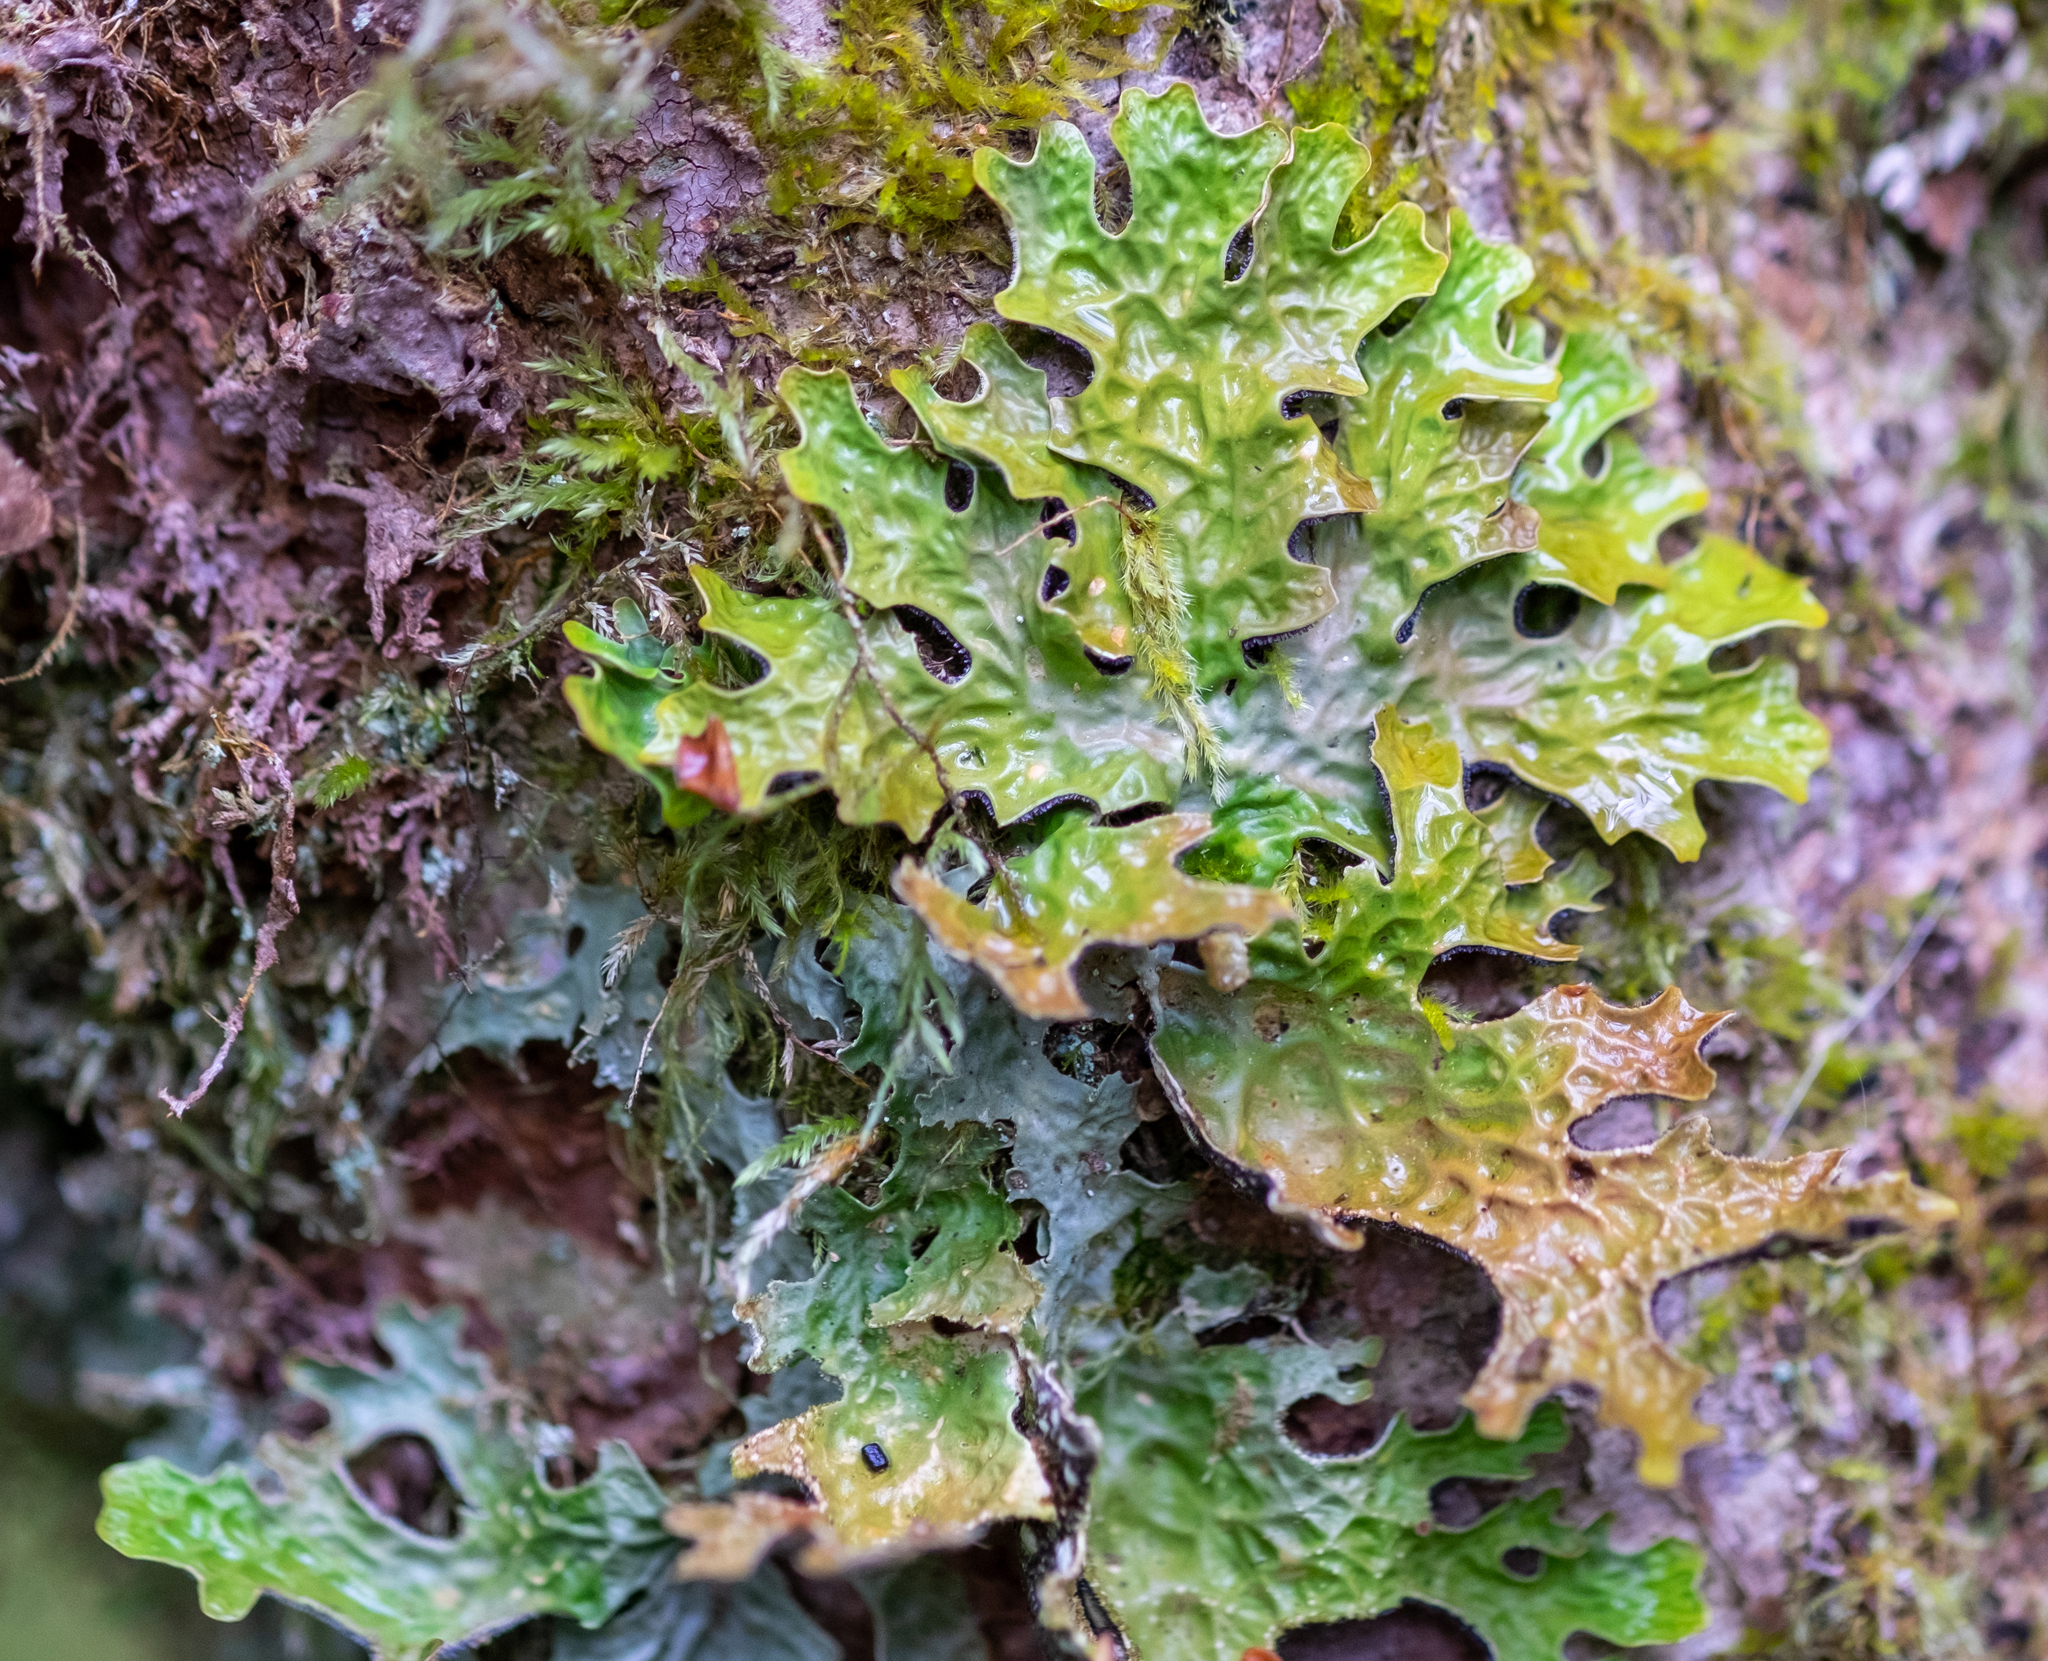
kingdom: Fungi
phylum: Ascomycota
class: Lecanoromycetes
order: Peltigerales
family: Lobariaceae
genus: Lobaria
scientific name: Lobaria pulmonaria
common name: Lungwort
